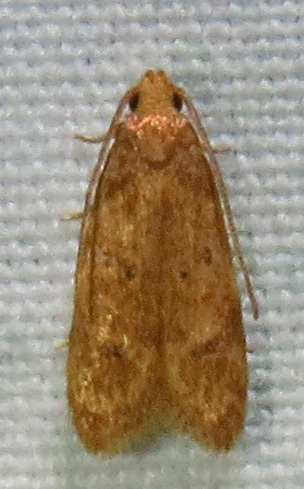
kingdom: Animalia
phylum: Arthropoda
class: Insecta
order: Lepidoptera
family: Autostichidae
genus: Gerdana
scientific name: Gerdana caritella
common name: Gerdana moth
